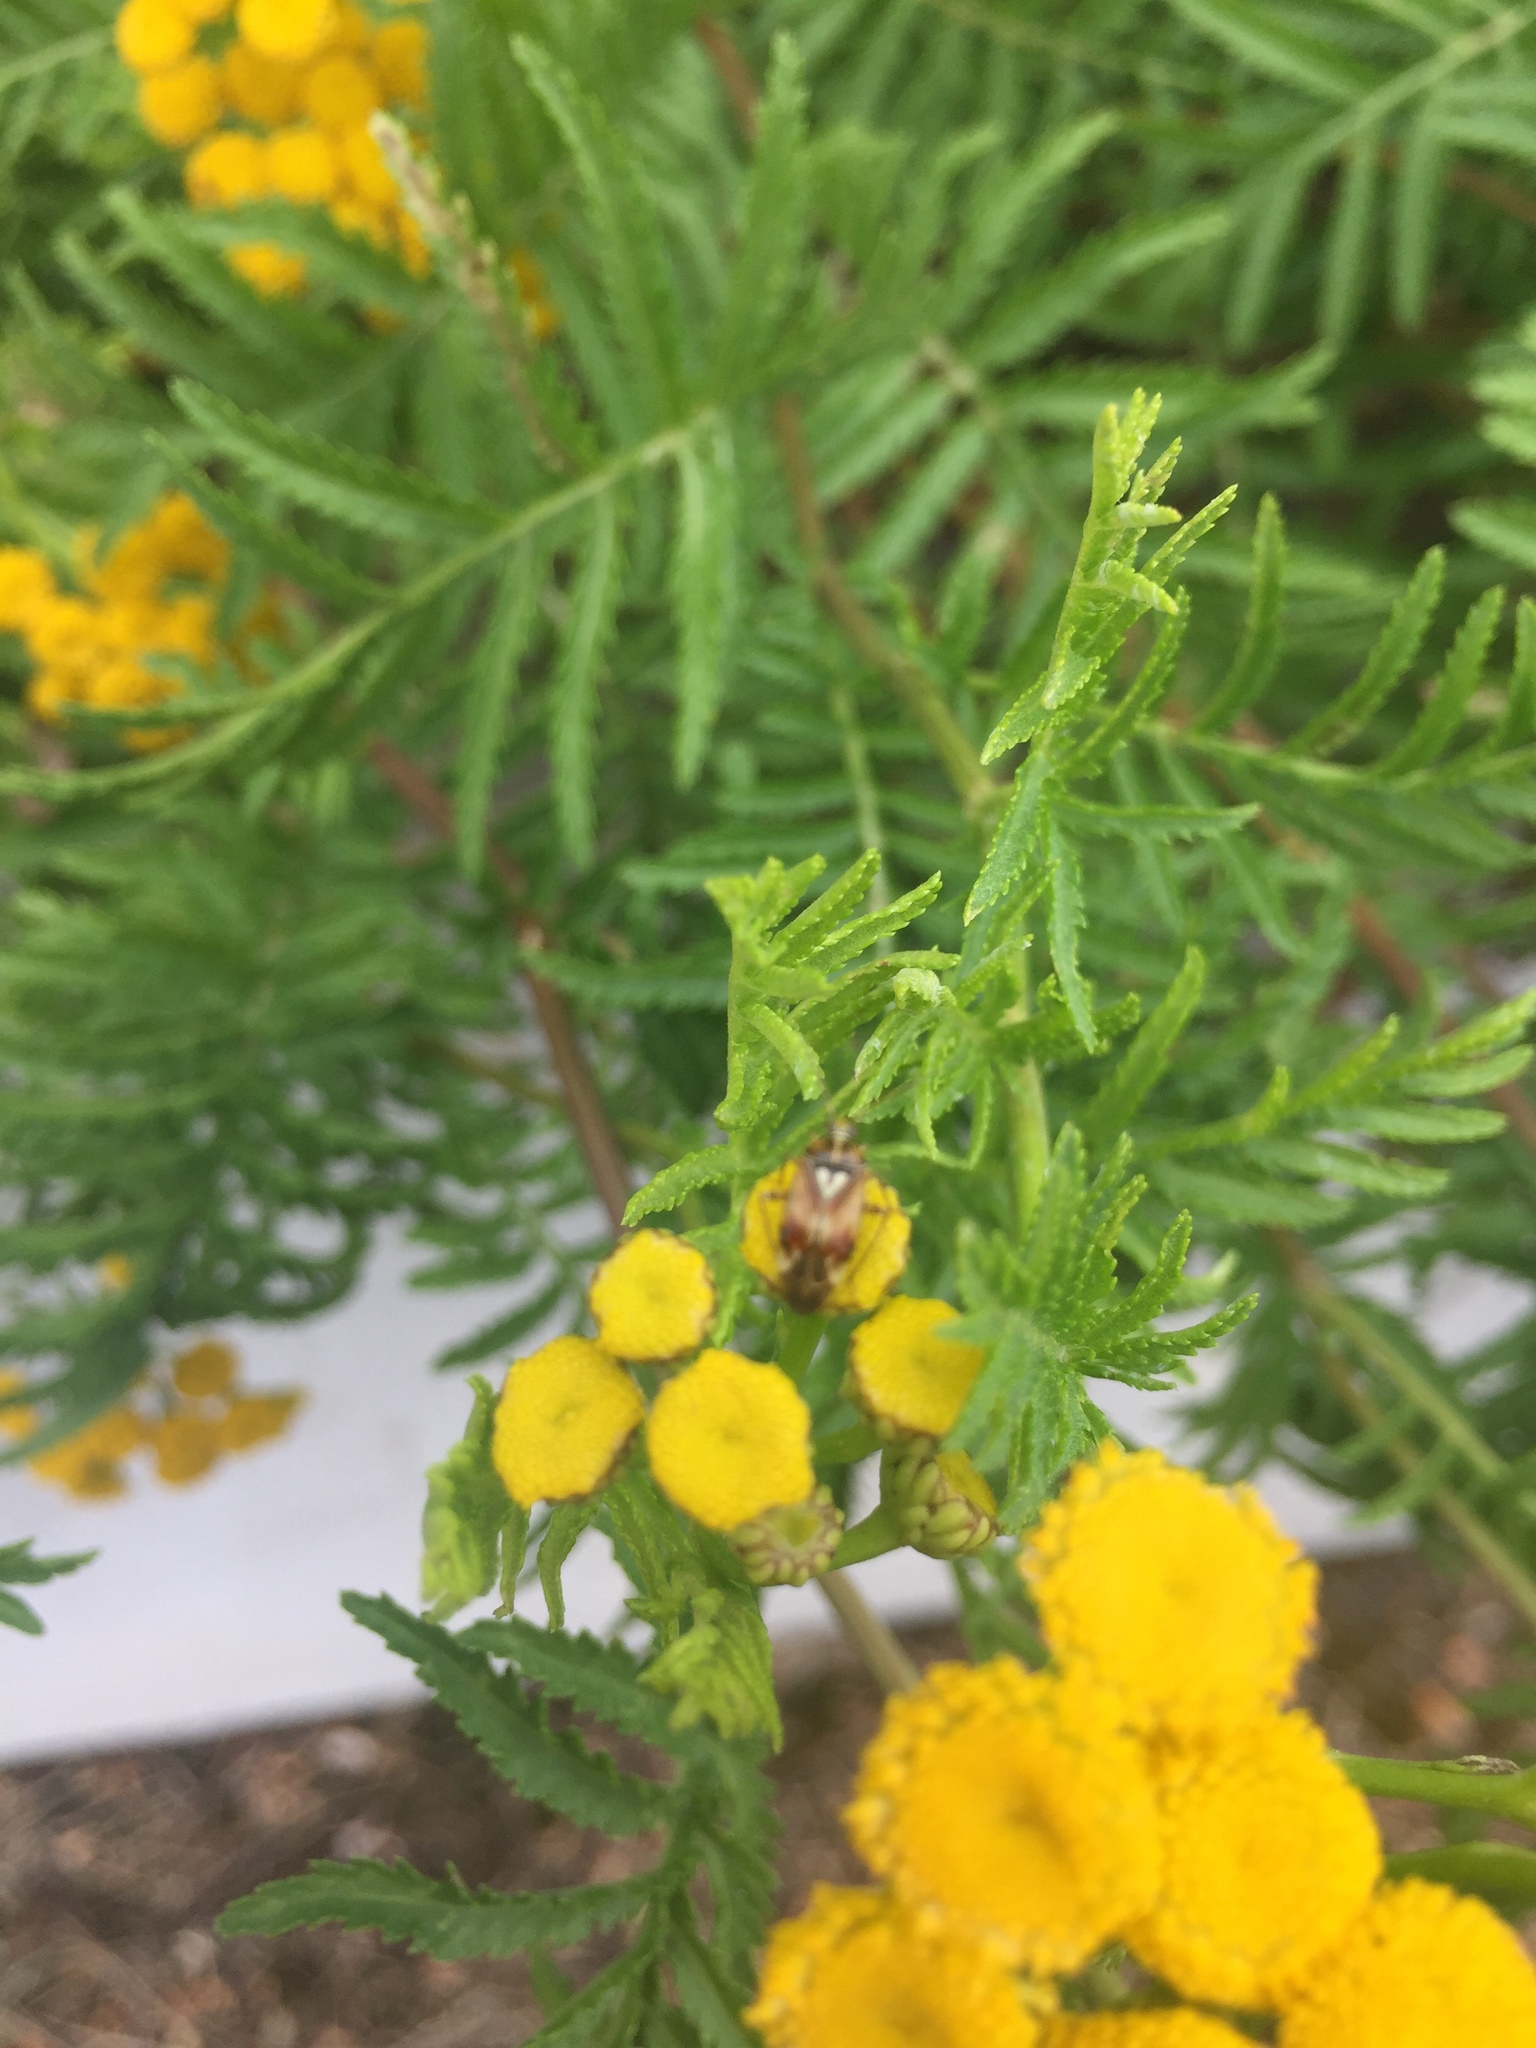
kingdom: Animalia
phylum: Arthropoda
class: Insecta
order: Hemiptera
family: Miridae
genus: Lygus
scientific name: Lygus pratensis
